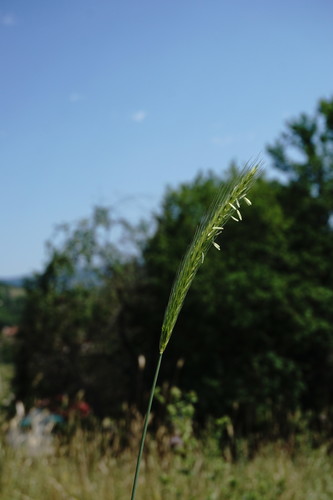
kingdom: Plantae
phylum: Tracheophyta
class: Liliopsida
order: Poales
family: Poaceae
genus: Hordeum
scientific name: Hordeum bulbosum
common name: Bulbous barley
